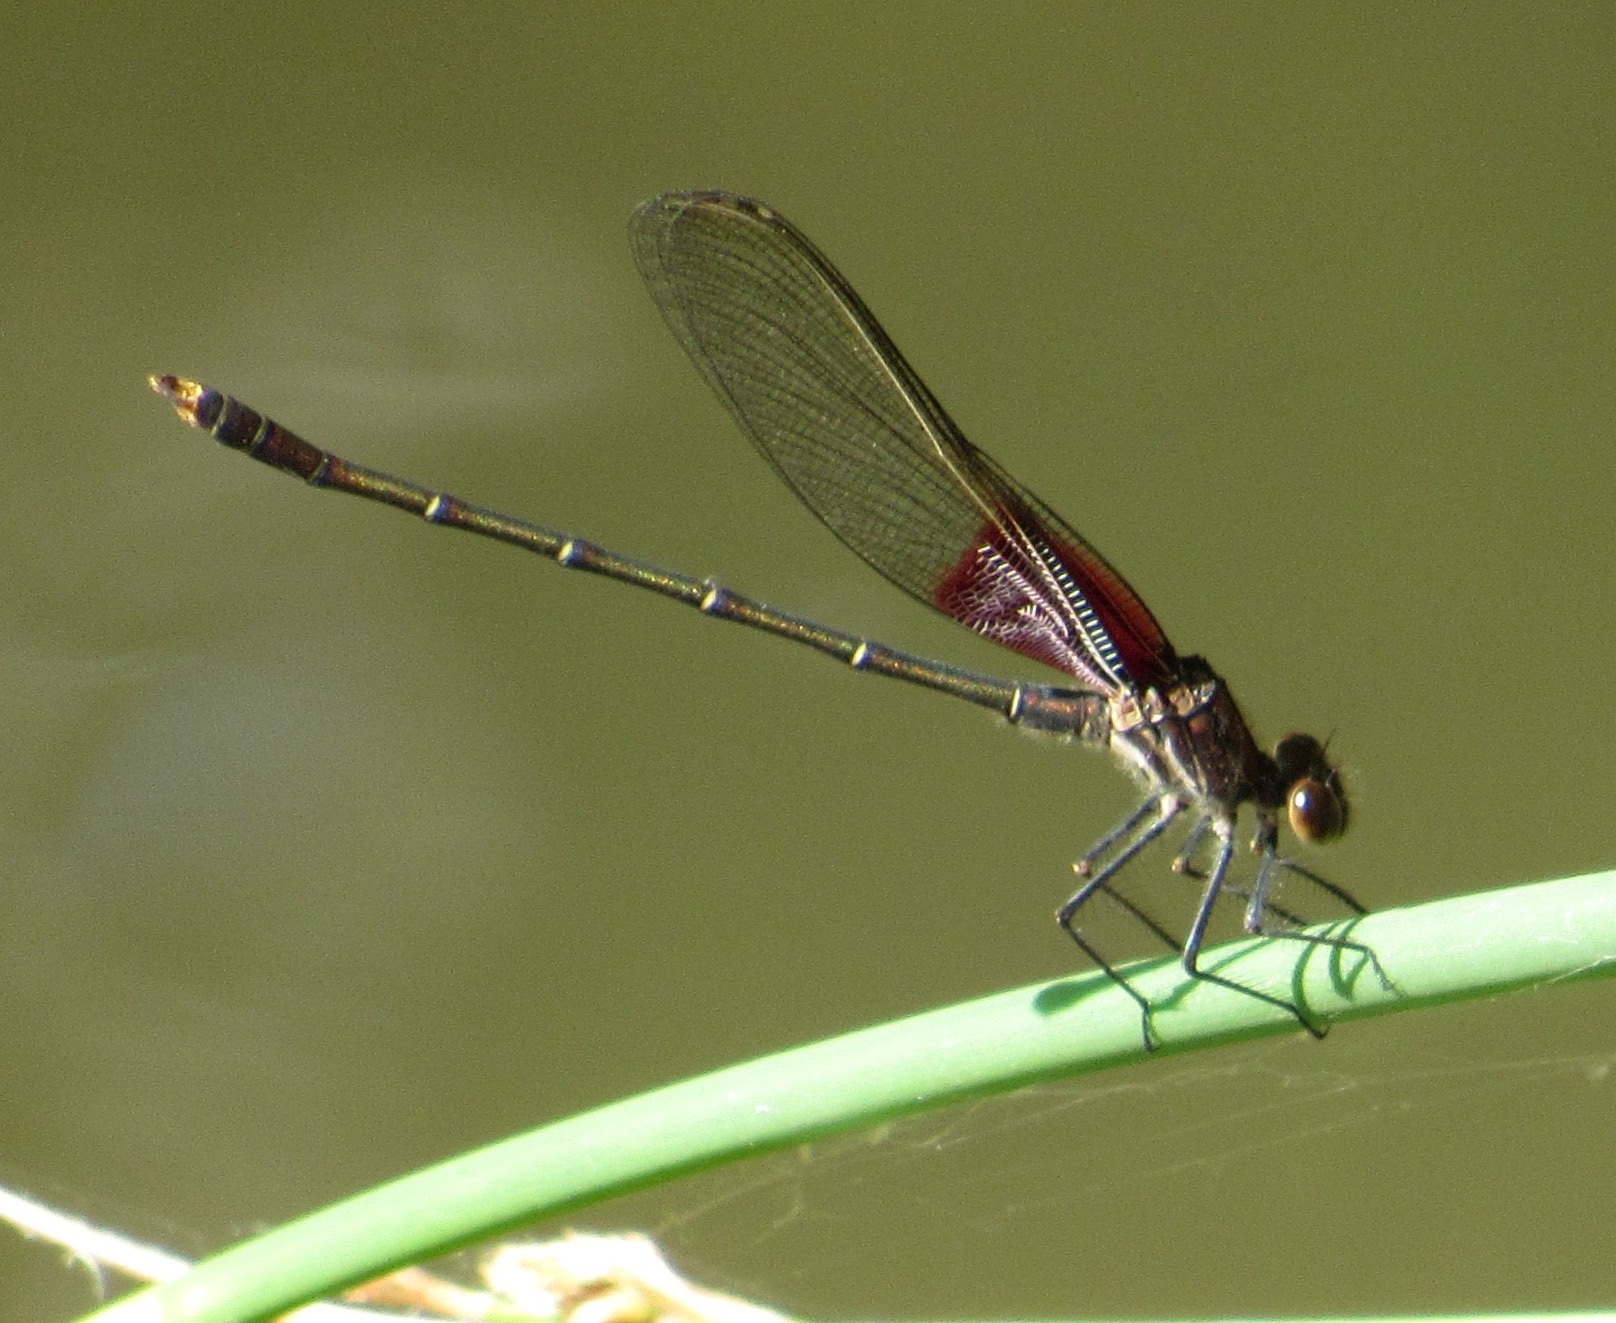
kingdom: Animalia
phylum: Arthropoda
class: Insecta
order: Odonata
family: Calopterygidae
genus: Hetaerina
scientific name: Hetaerina americana
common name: American rubyspot
